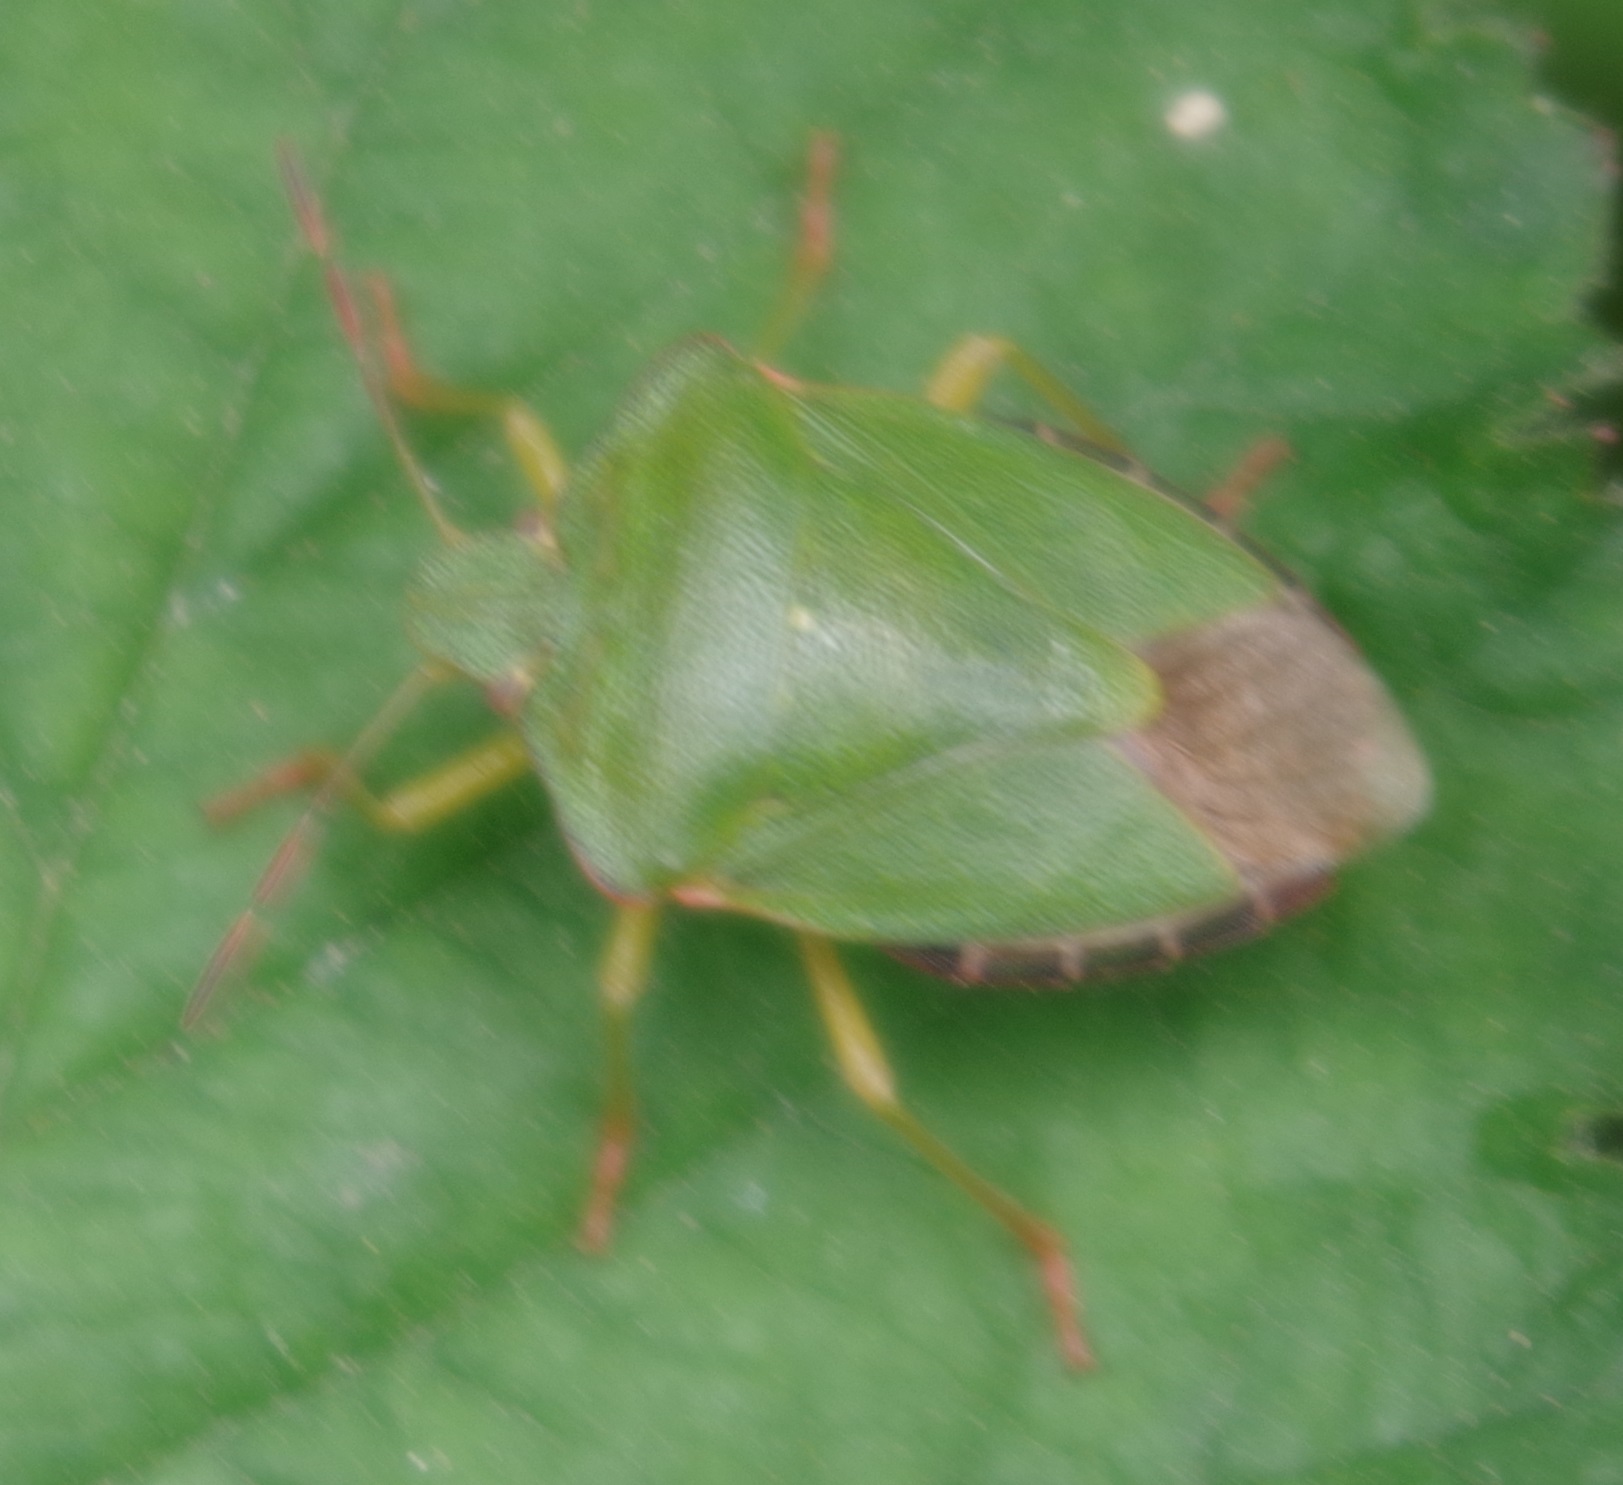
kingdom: Animalia
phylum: Arthropoda
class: Insecta
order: Hemiptera
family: Pentatomidae
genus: Palomena
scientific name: Palomena prasina
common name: Green shieldbug
